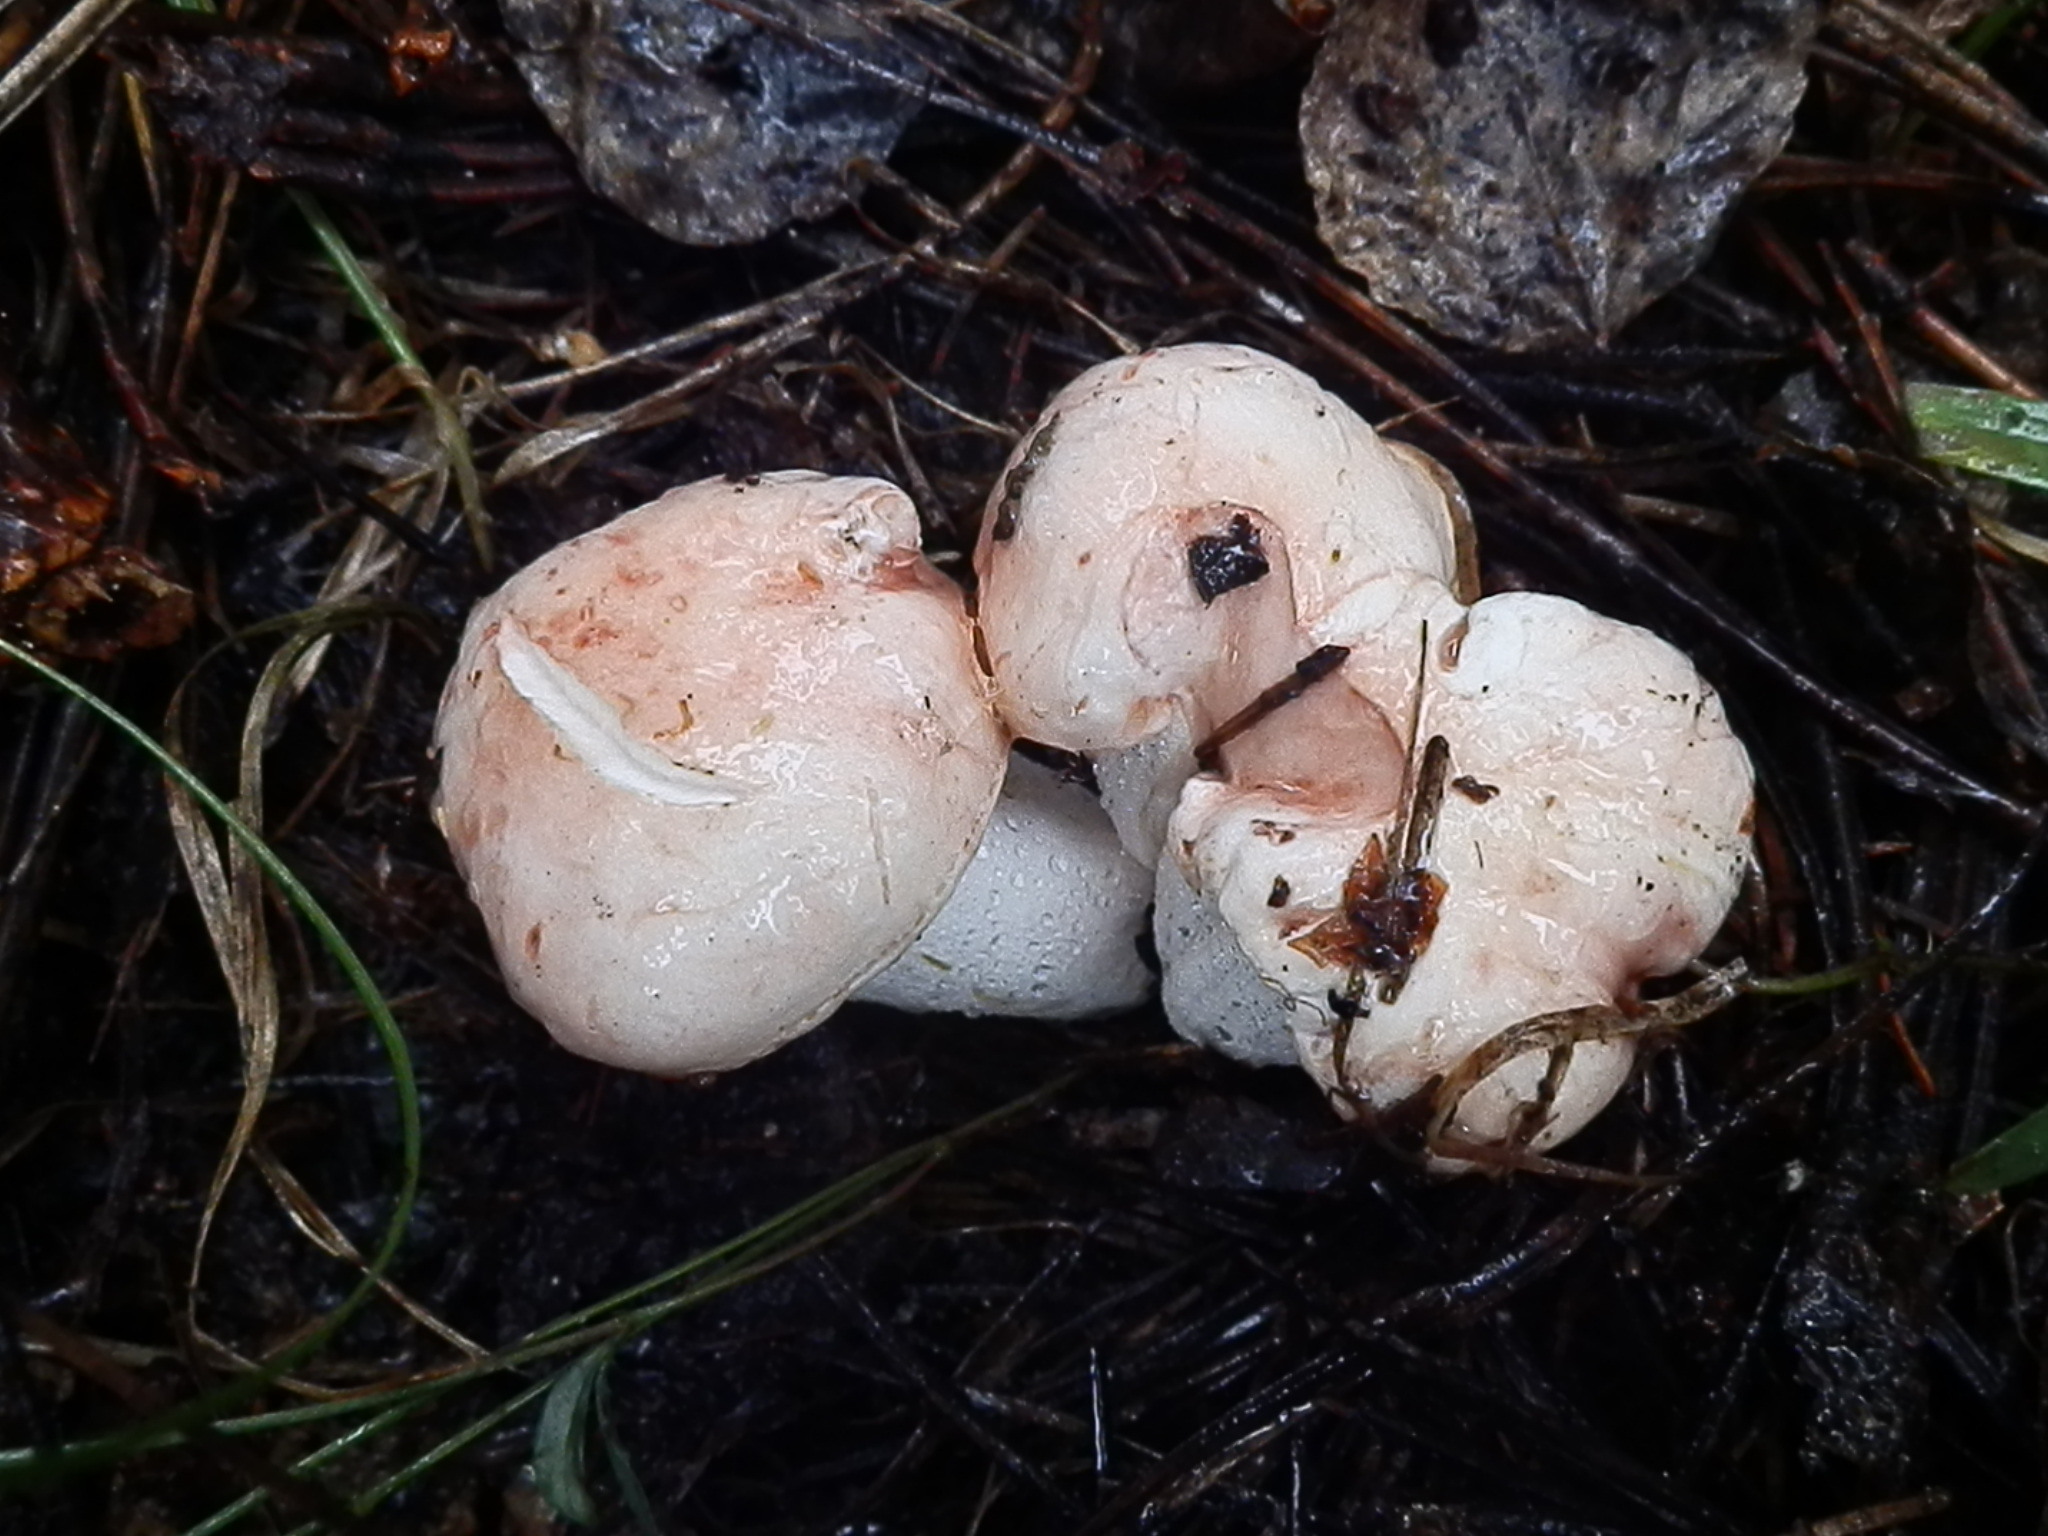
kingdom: Fungi
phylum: Basidiomycota
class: Agaricomycetes
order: Agaricales
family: Hygrophoraceae
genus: Hygrophorus
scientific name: Hygrophorus pudorinus
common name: Rosy woodwax
